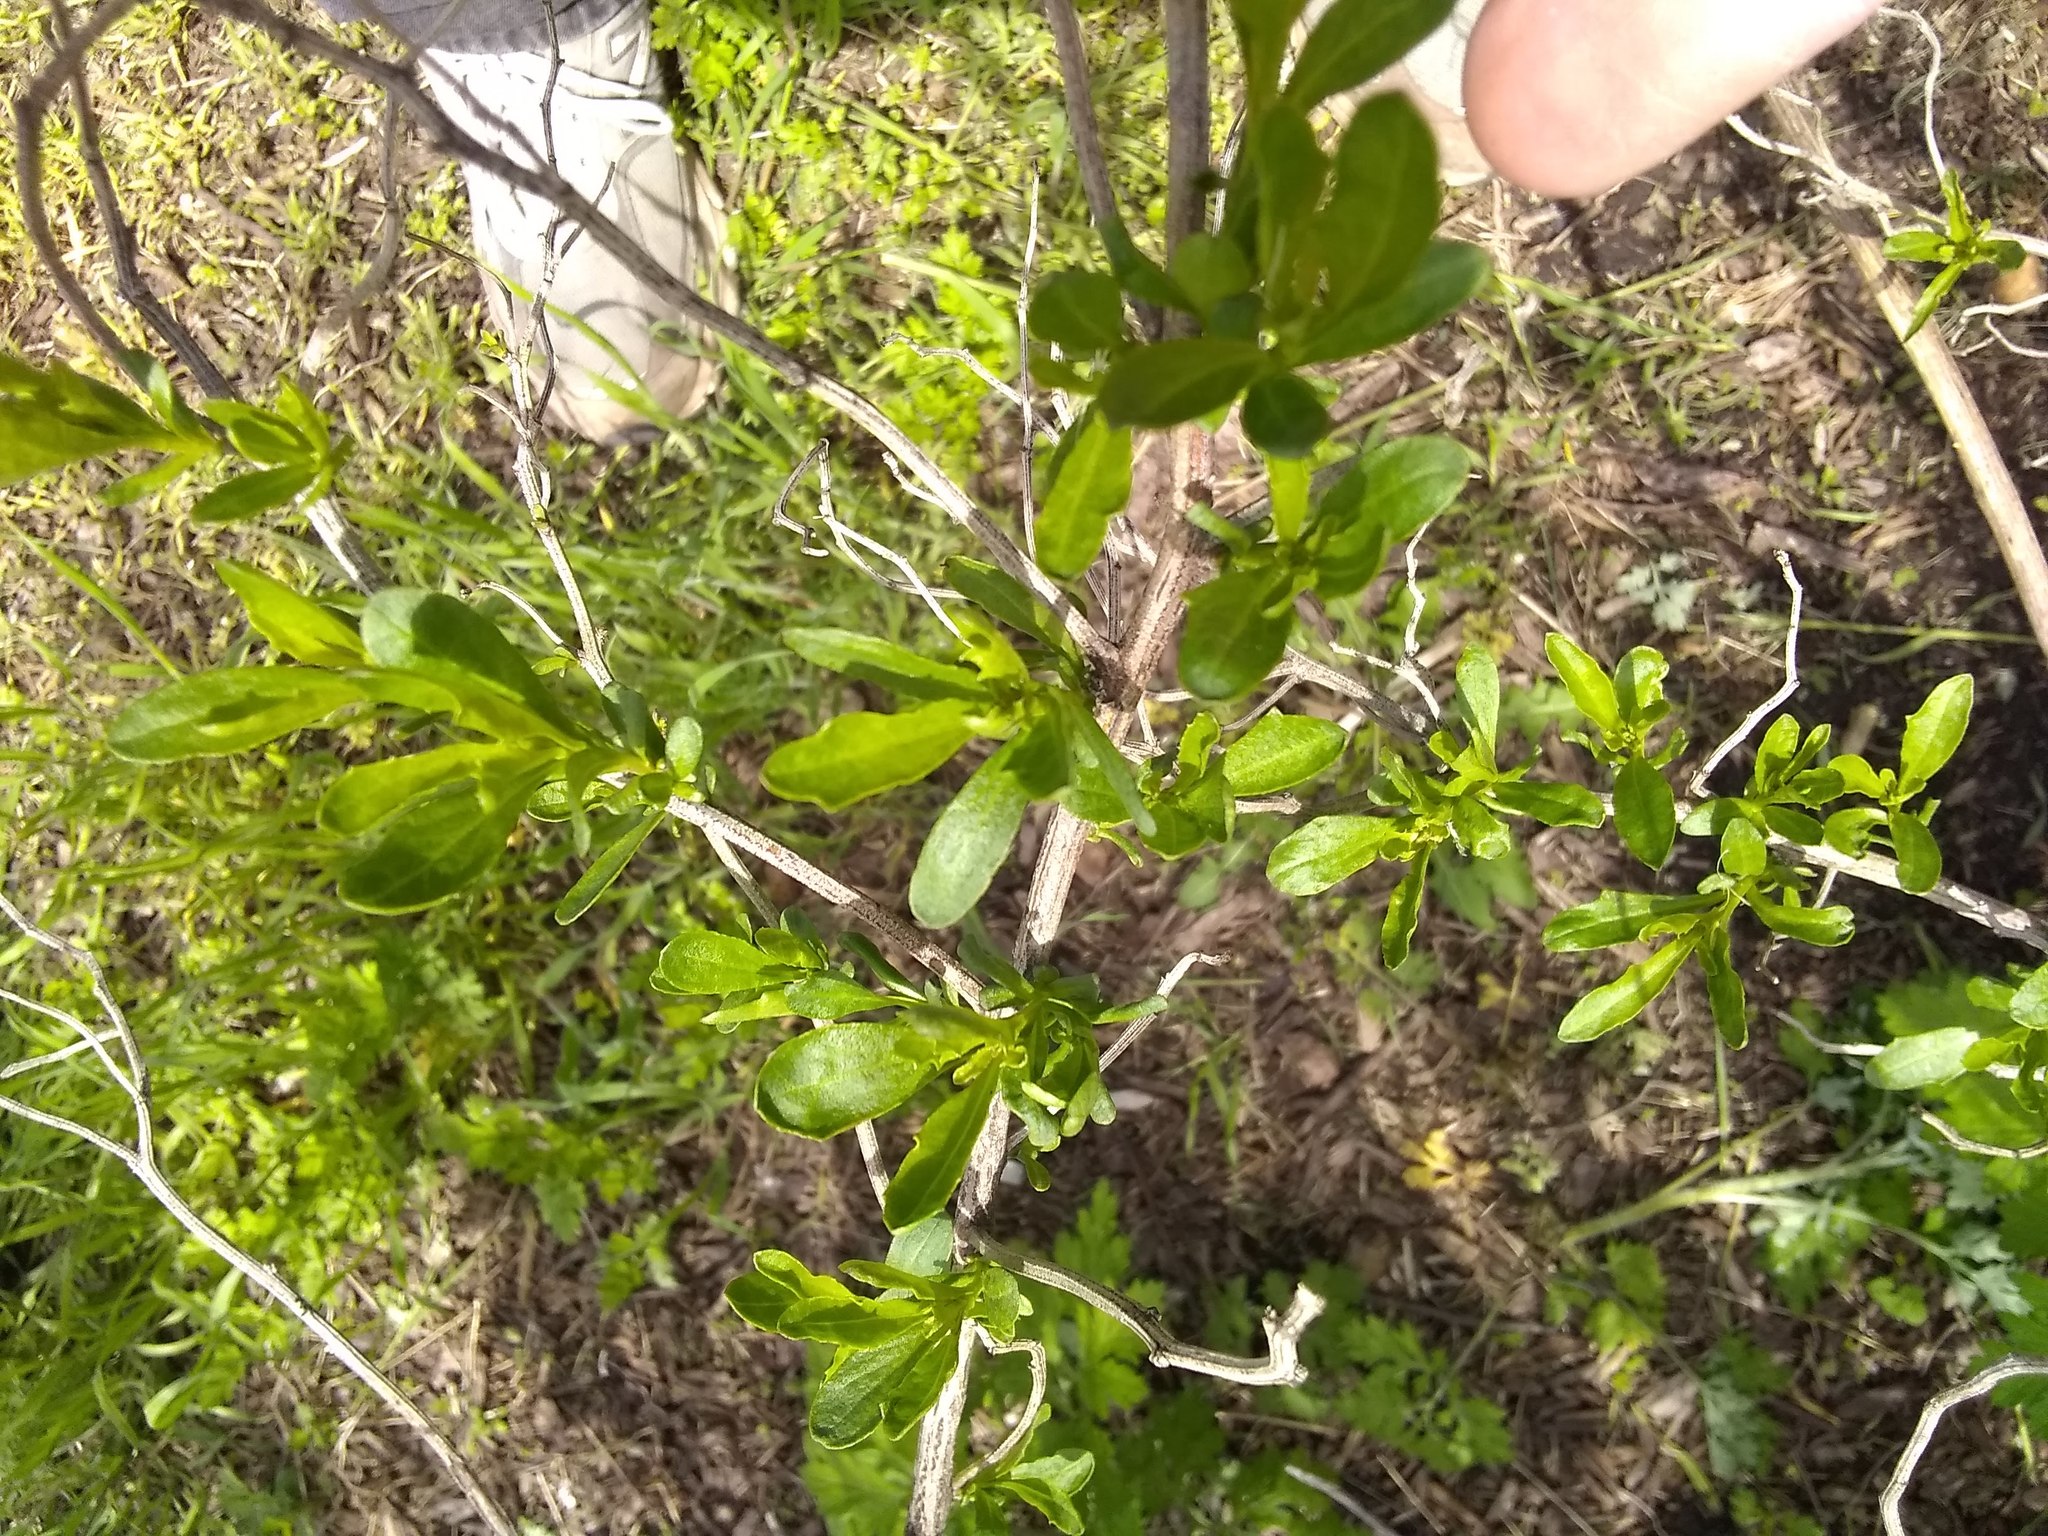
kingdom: Plantae
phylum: Tracheophyta
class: Magnoliopsida
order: Asterales
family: Asteraceae
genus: Baccharis
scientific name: Baccharis halimifolia
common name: Eastern baccharis
